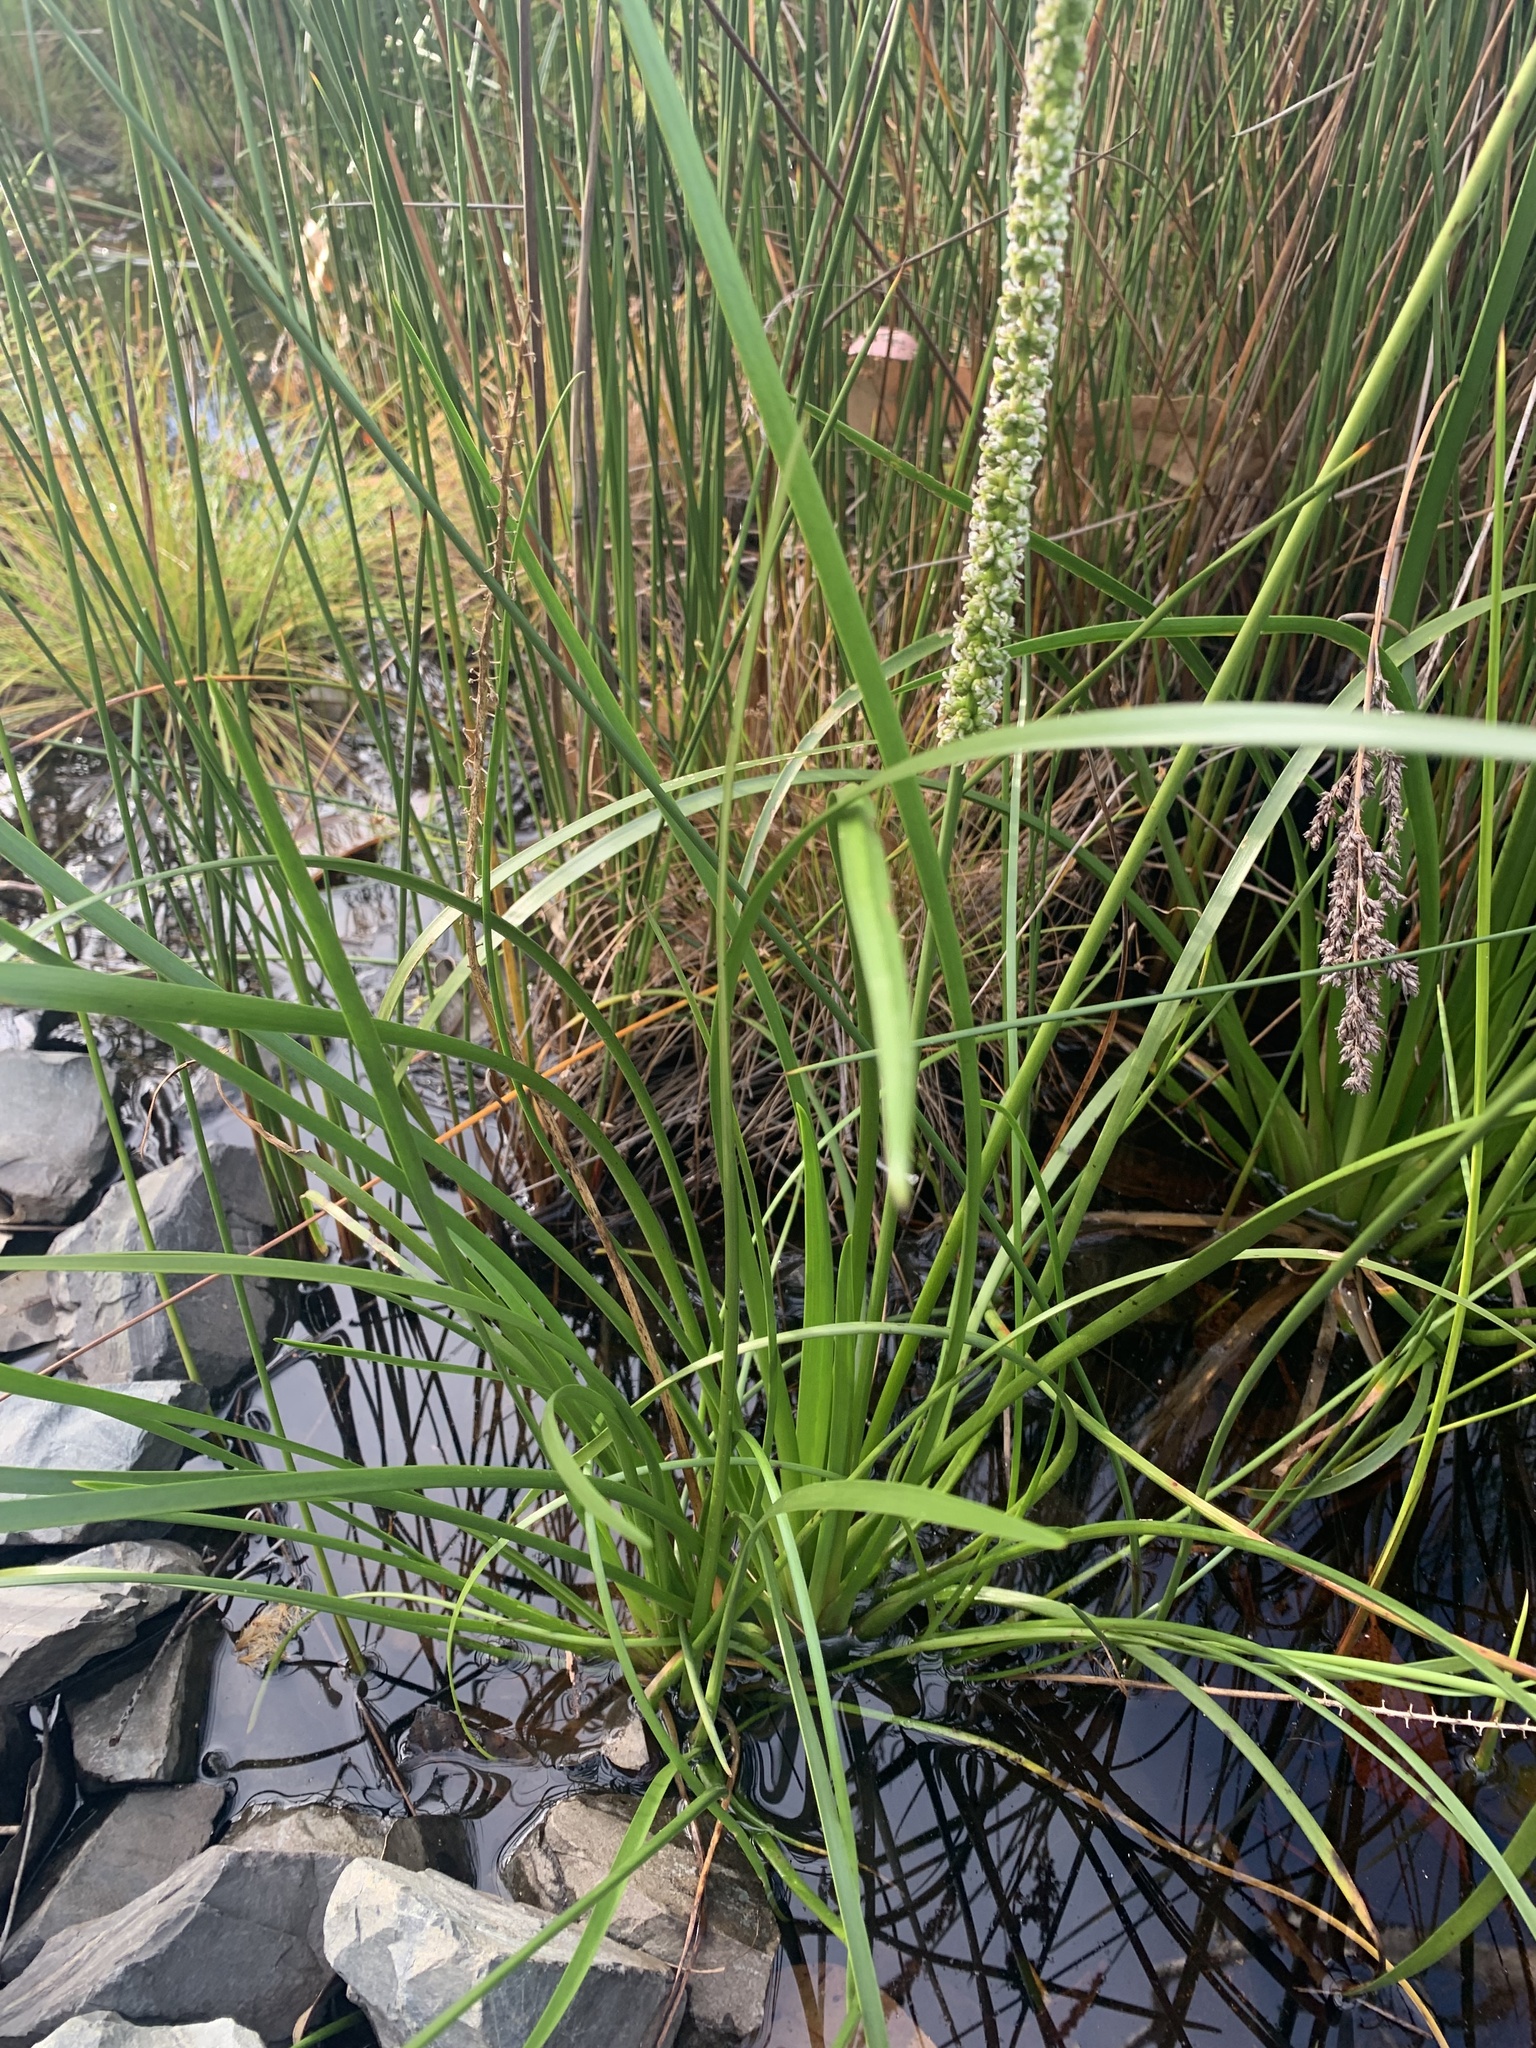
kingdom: Plantae
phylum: Tracheophyta
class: Liliopsida
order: Alismatales
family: Juncaginaceae
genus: Cycnogeton
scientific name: Cycnogeton microtuberosum
